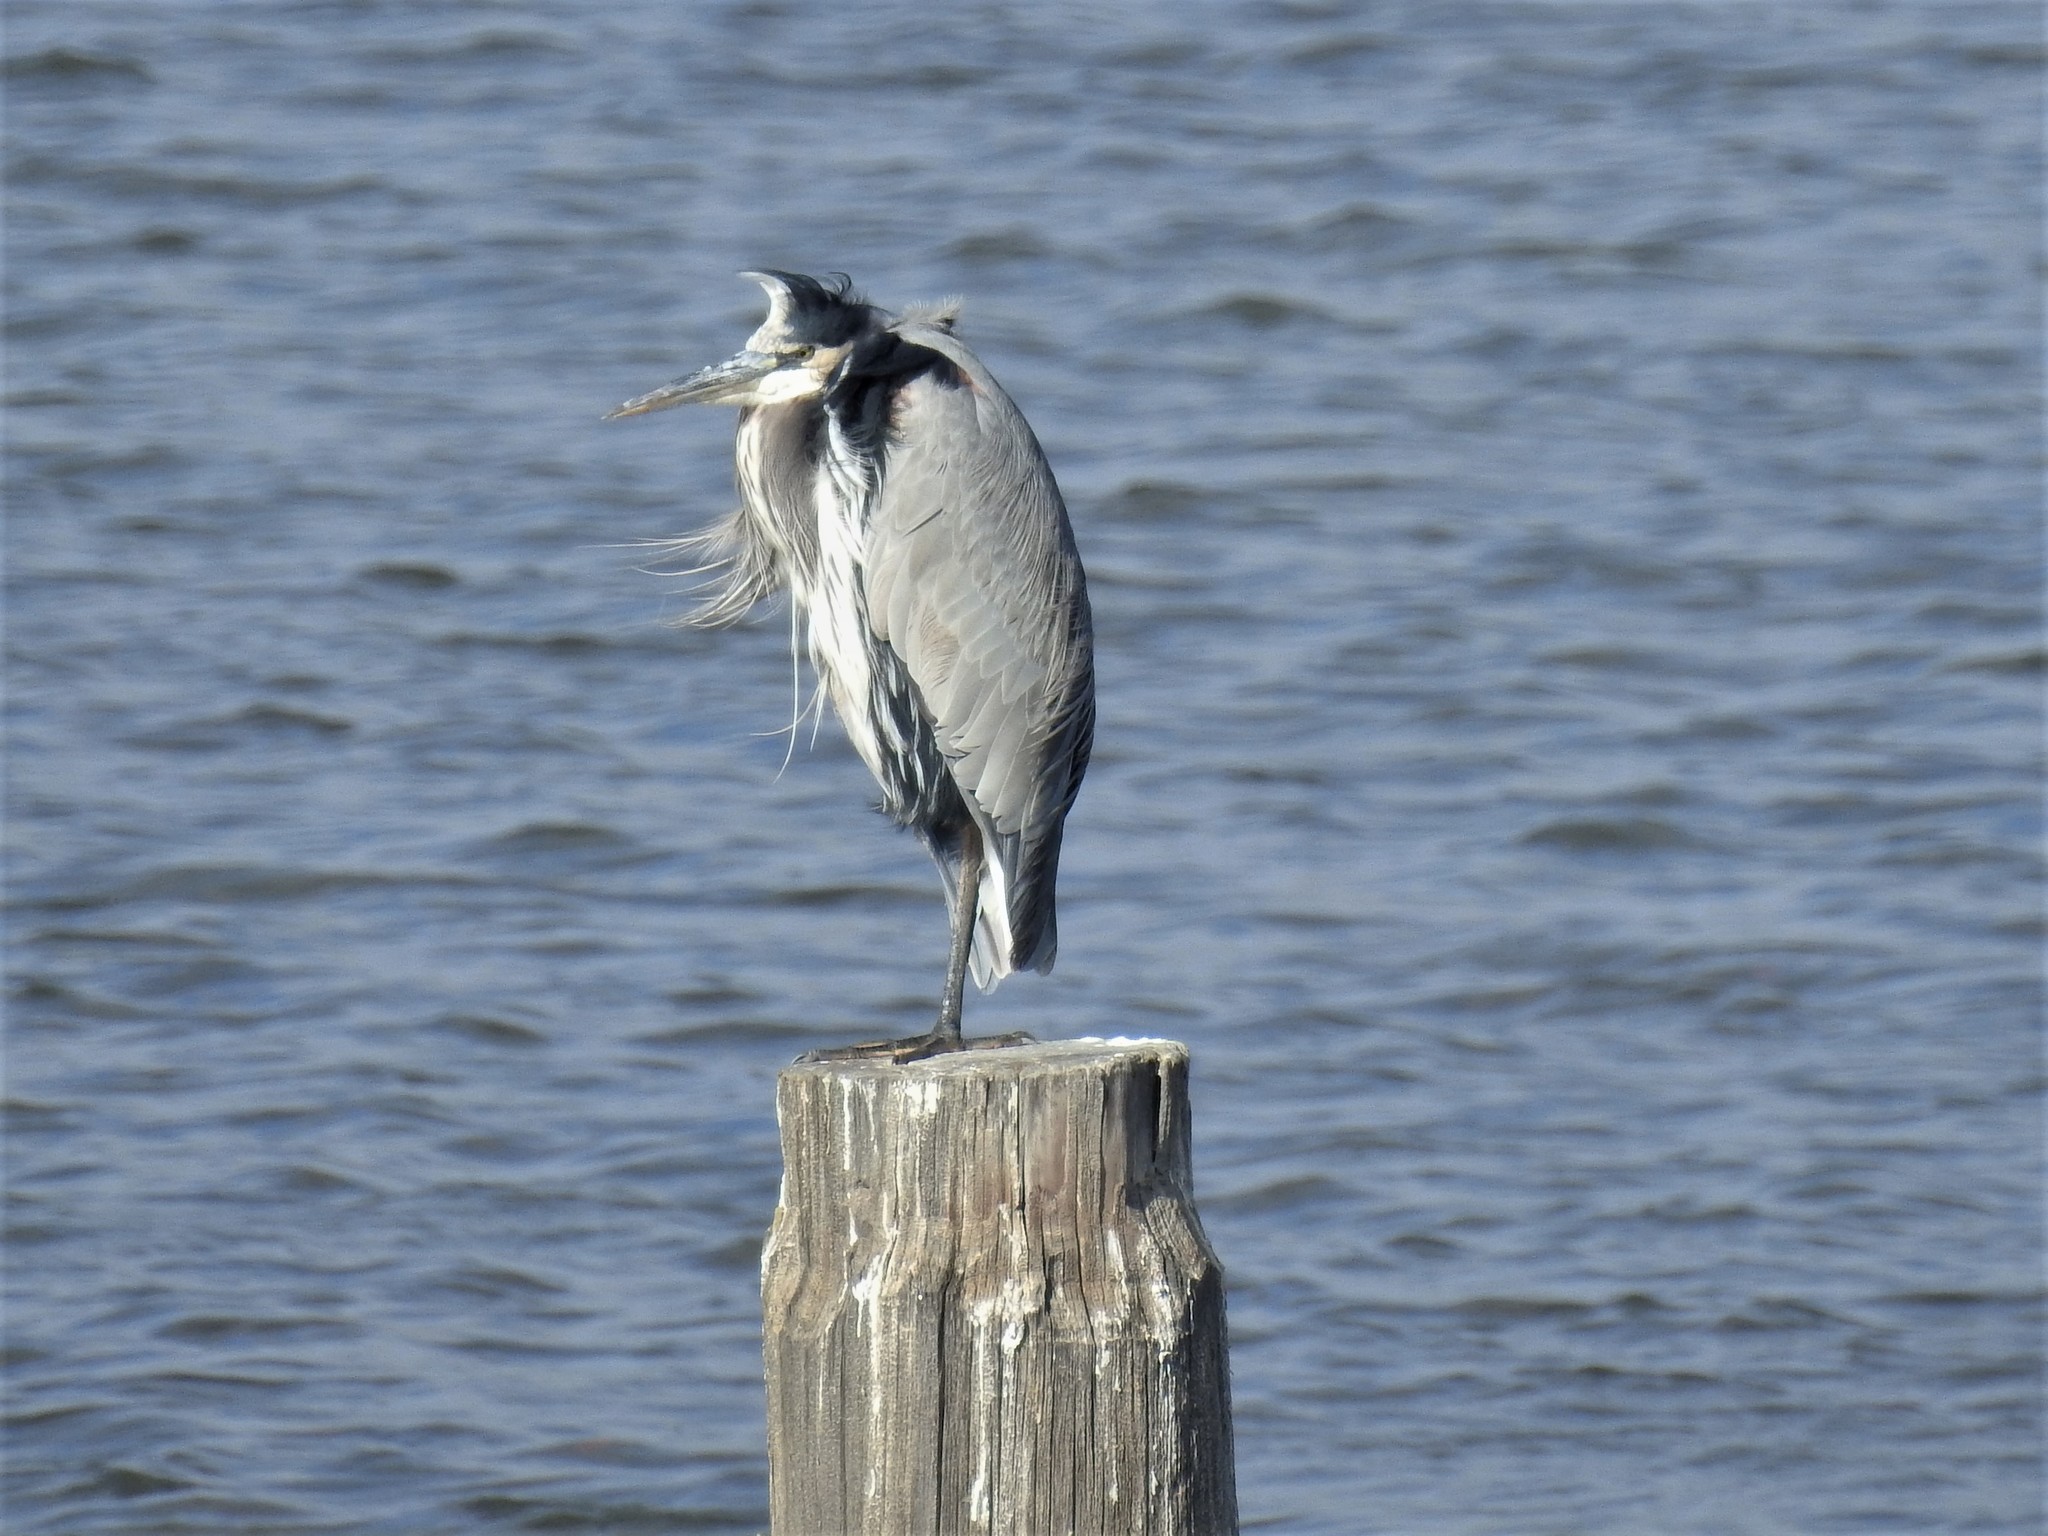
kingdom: Animalia
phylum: Chordata
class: Aves
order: Pelecaniformes
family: Ardeidae
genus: Ardea
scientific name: Ardea herodias
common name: Great blue heron
